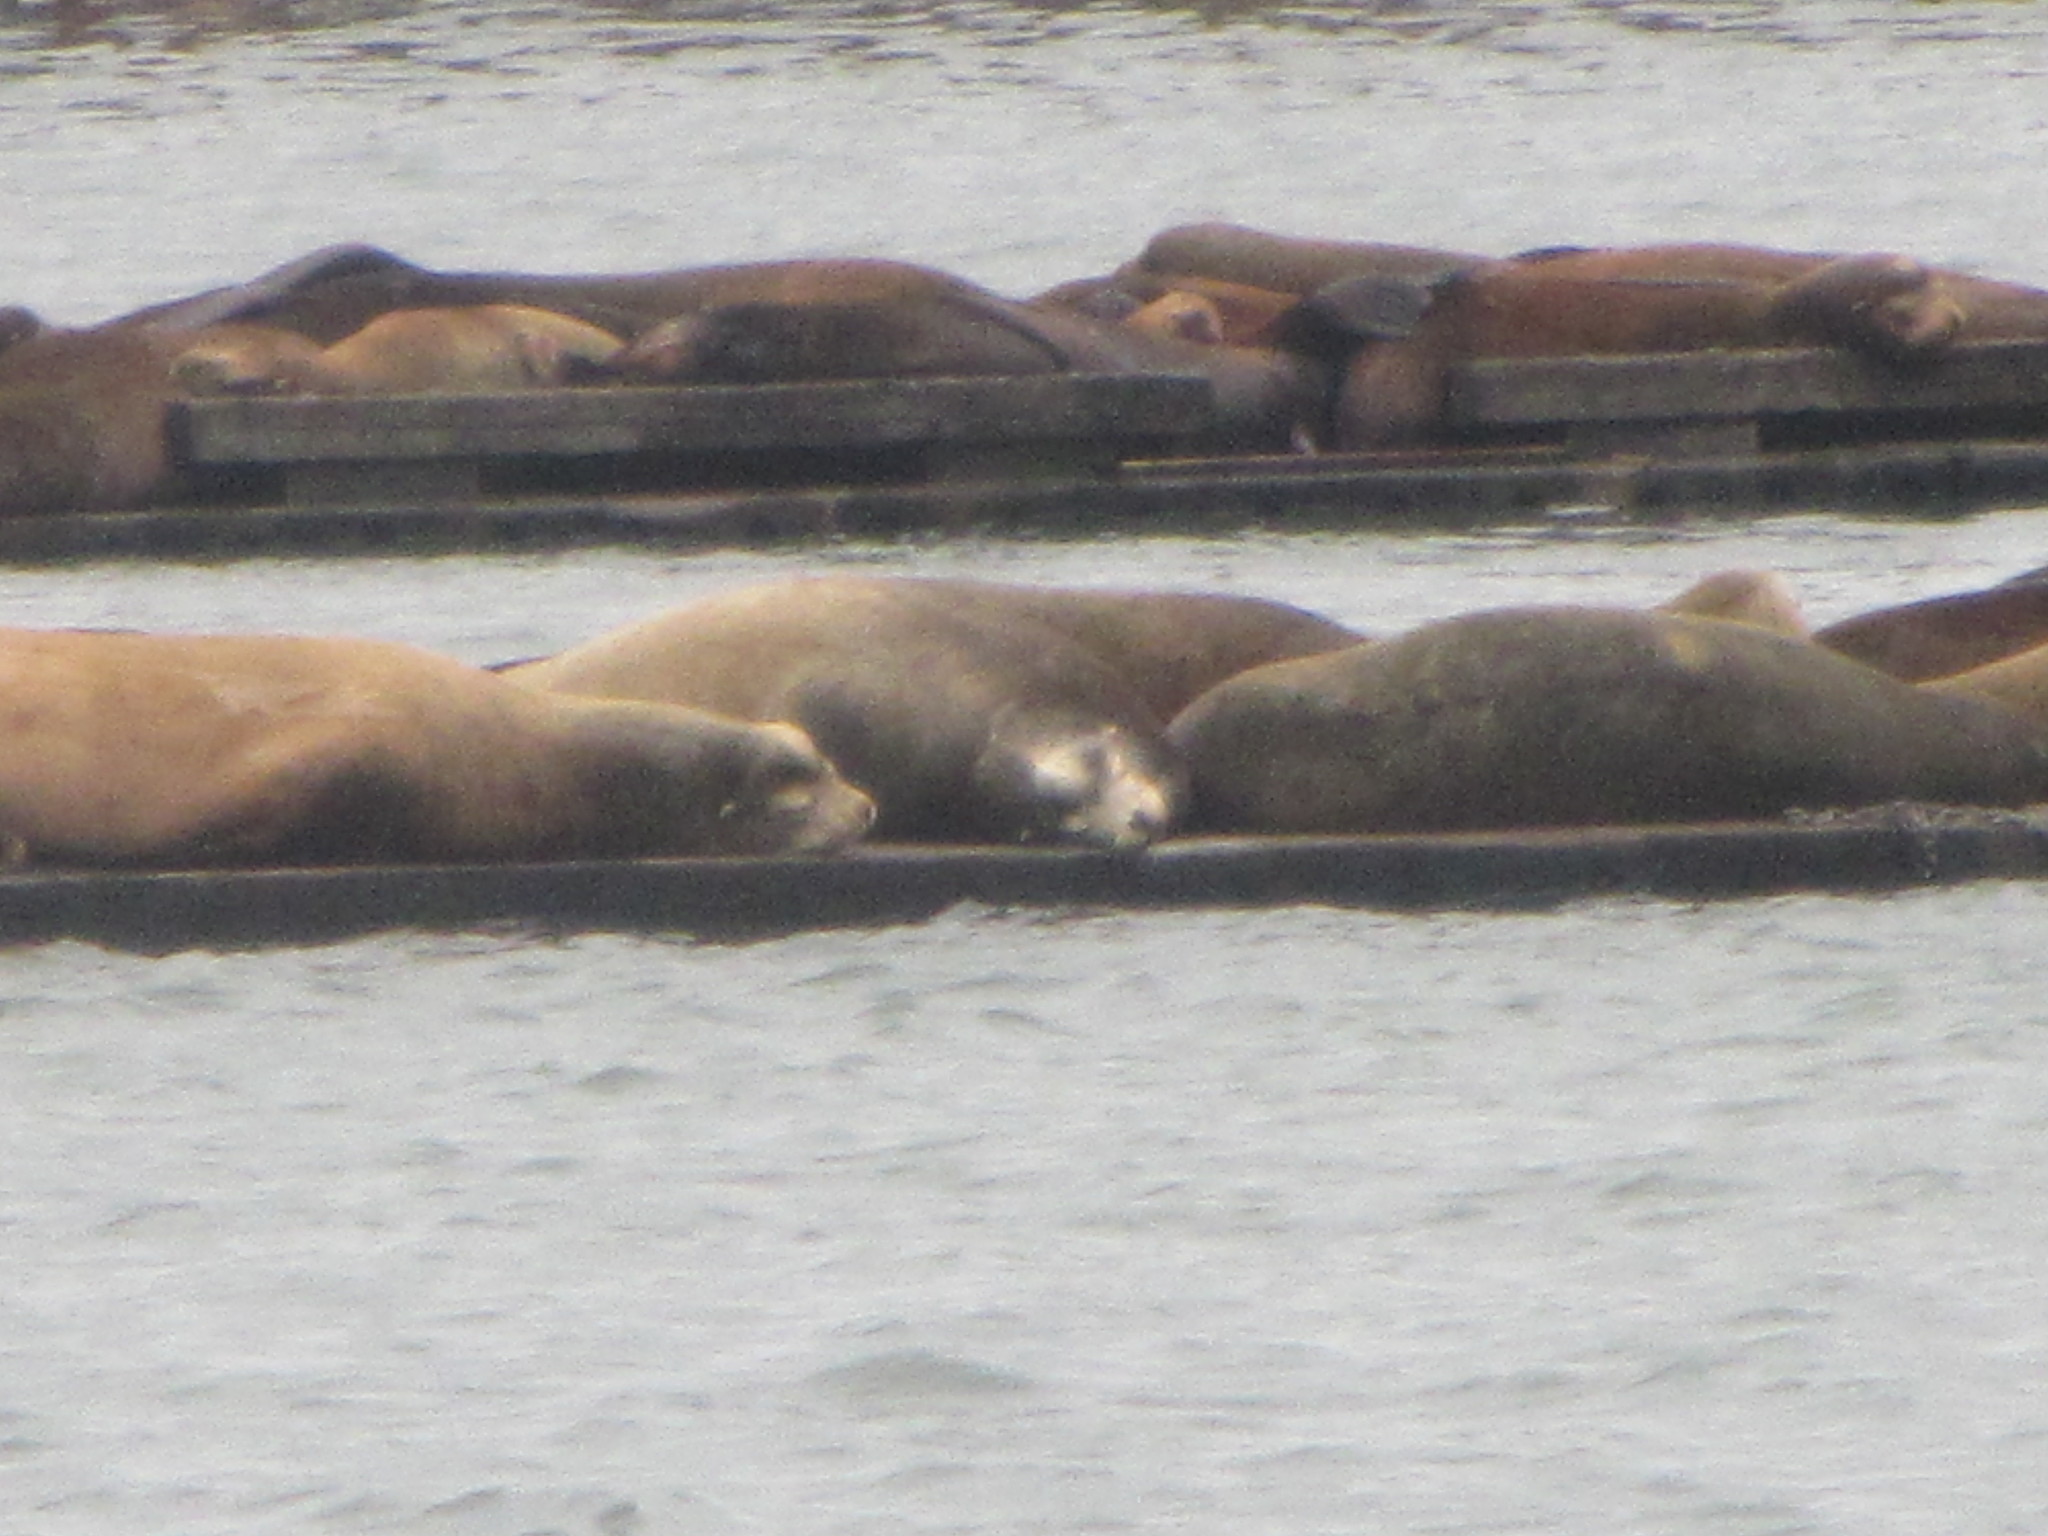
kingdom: Animalia
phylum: Chordata
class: Mammalia
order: Carnivora
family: Otariidae
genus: Zalophus
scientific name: Zalophus californianus
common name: California sea lion
